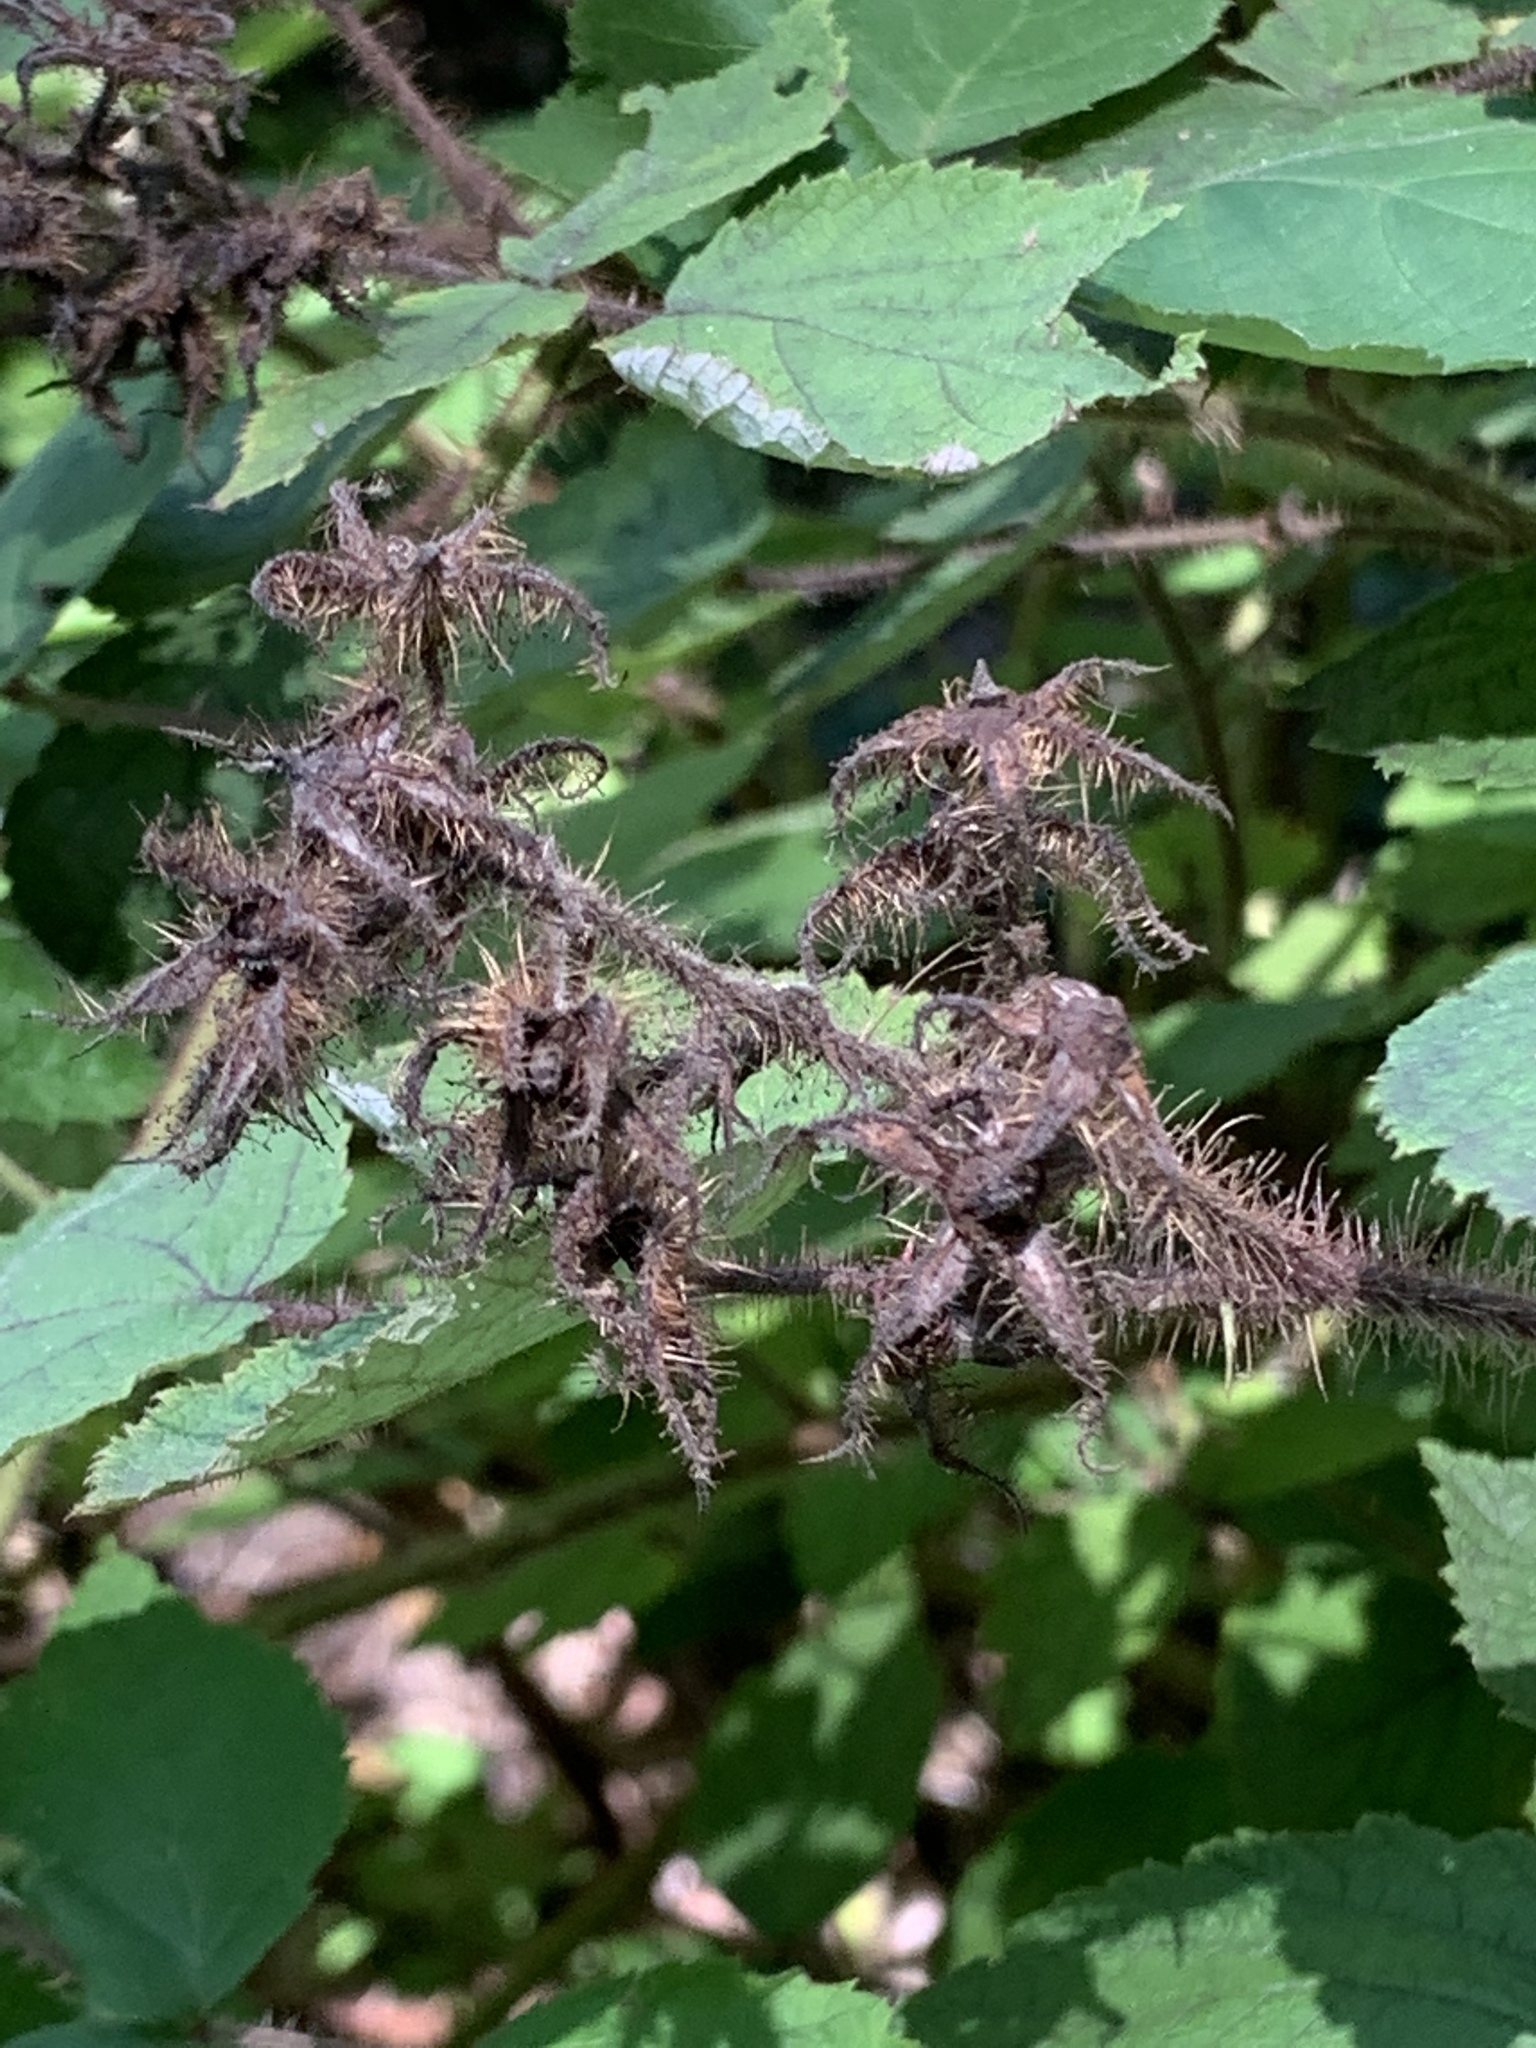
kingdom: Plantae
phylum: Tracheophyta
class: Magnoliopsida
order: Rosales
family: Rosaceae
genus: Rubus
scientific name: Rubus phoenicolasius
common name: Japanese wineberry
